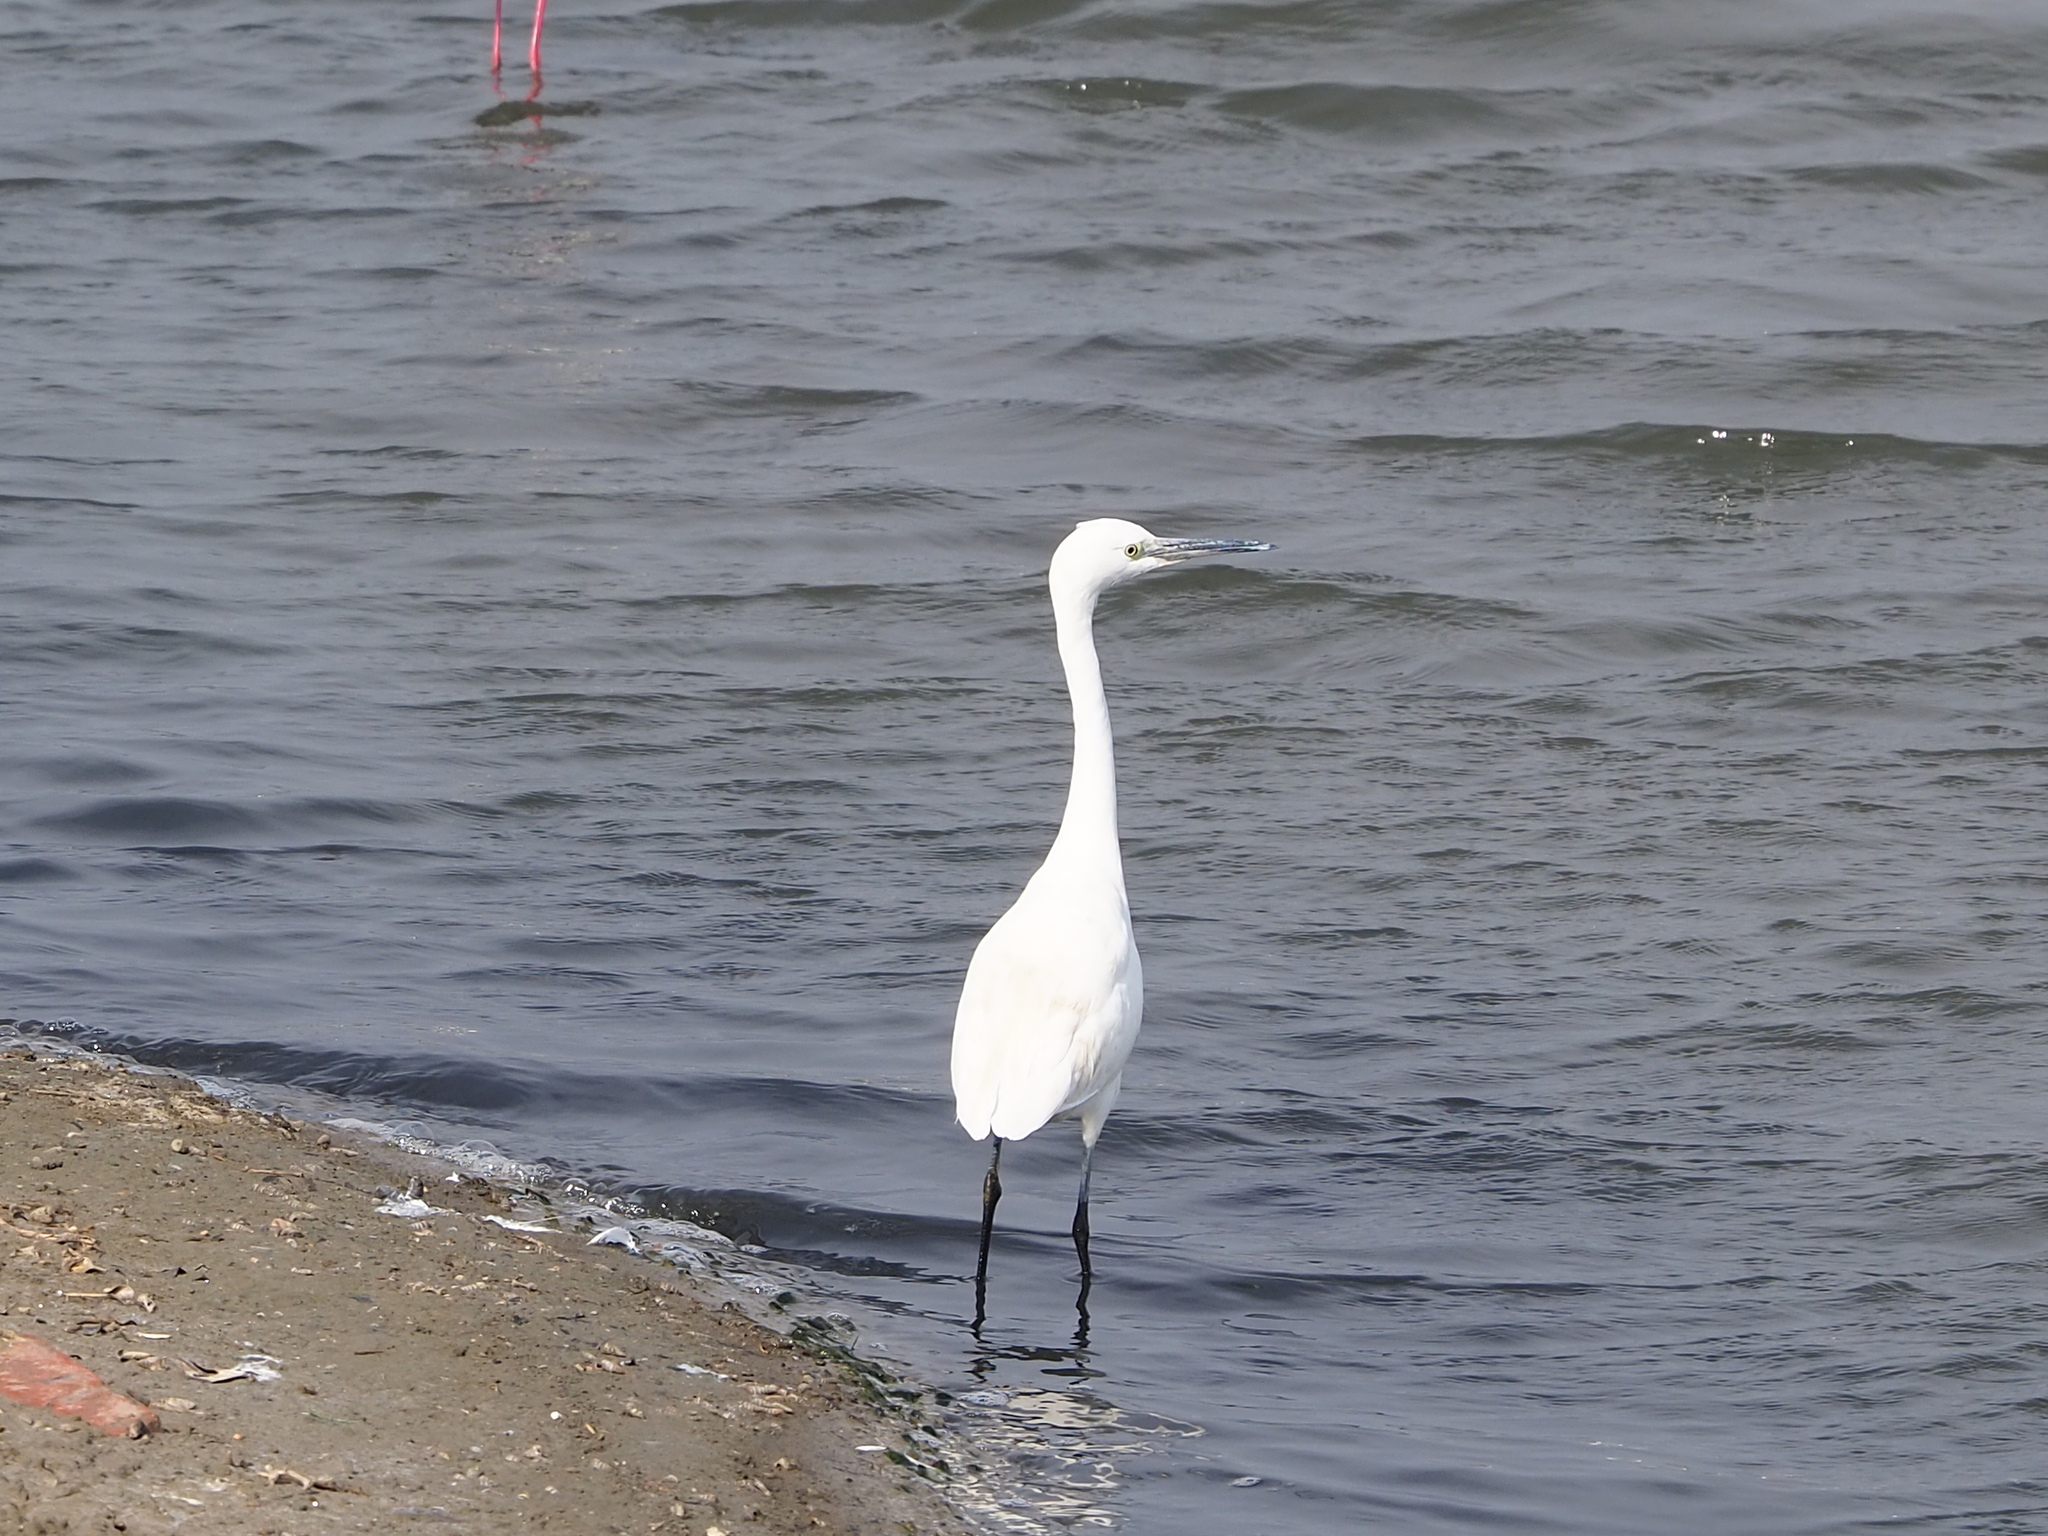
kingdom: Animalia
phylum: Chordata
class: Aves
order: Pelecaniformes
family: Ardeidae
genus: Egretta
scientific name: Egretta garzetta
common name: Little egret
